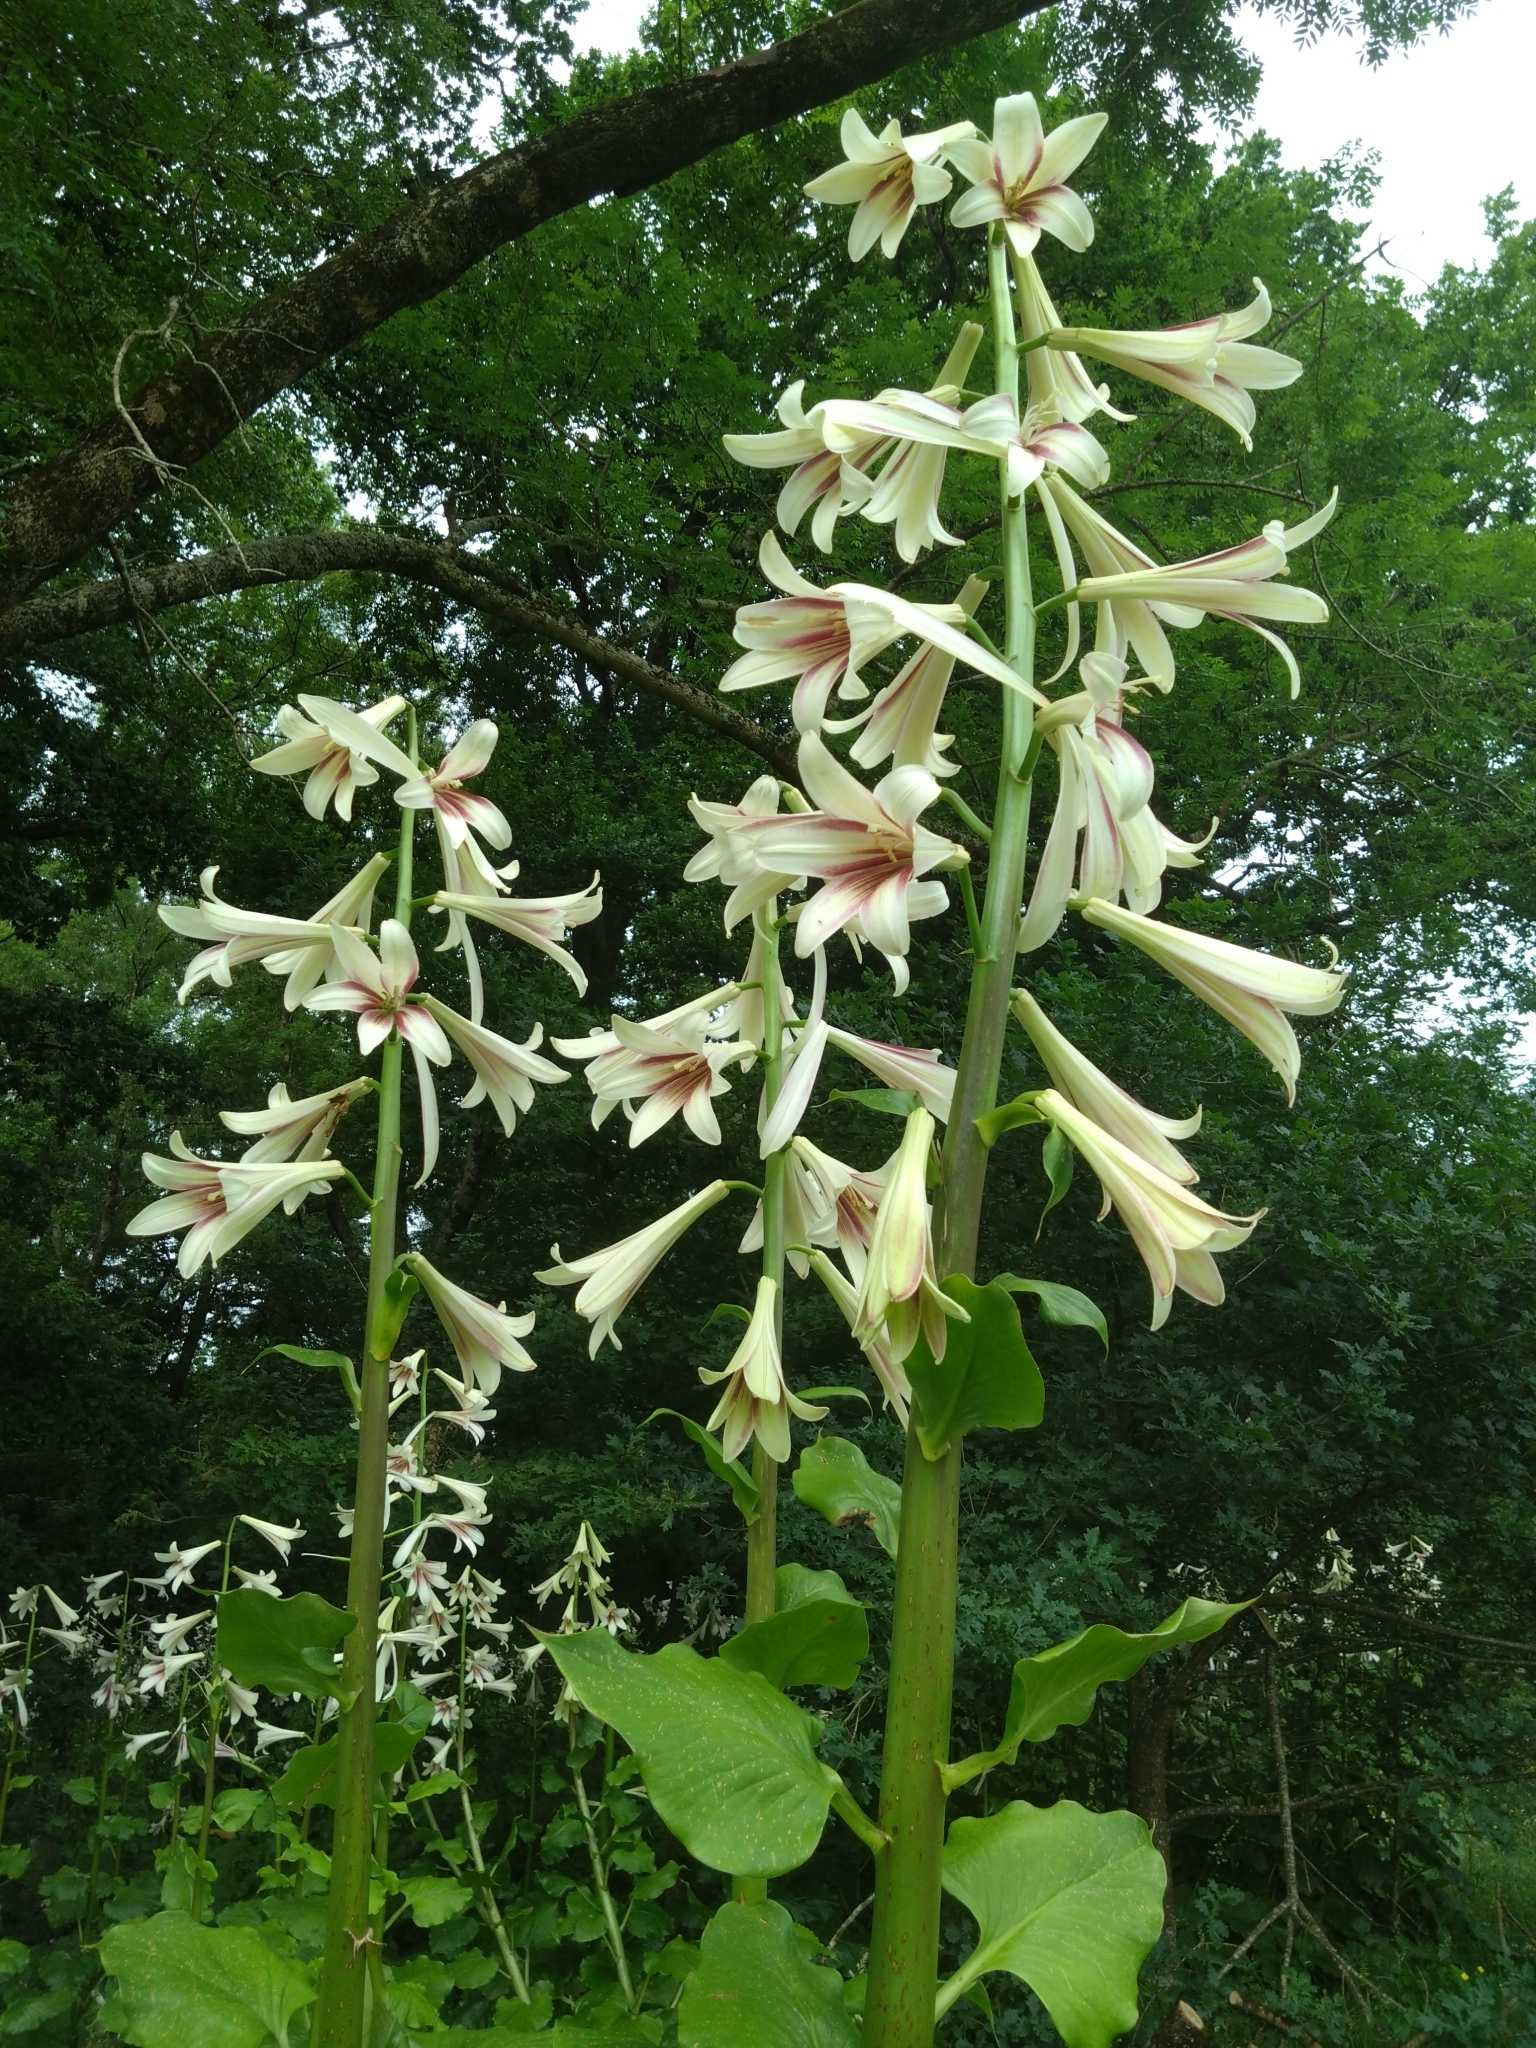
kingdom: Plantae
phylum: Tracheophyta
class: Liliopsida
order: Liliales
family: Liliaceae
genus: Cardiocrinum
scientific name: Cardiocrinum giganteum
